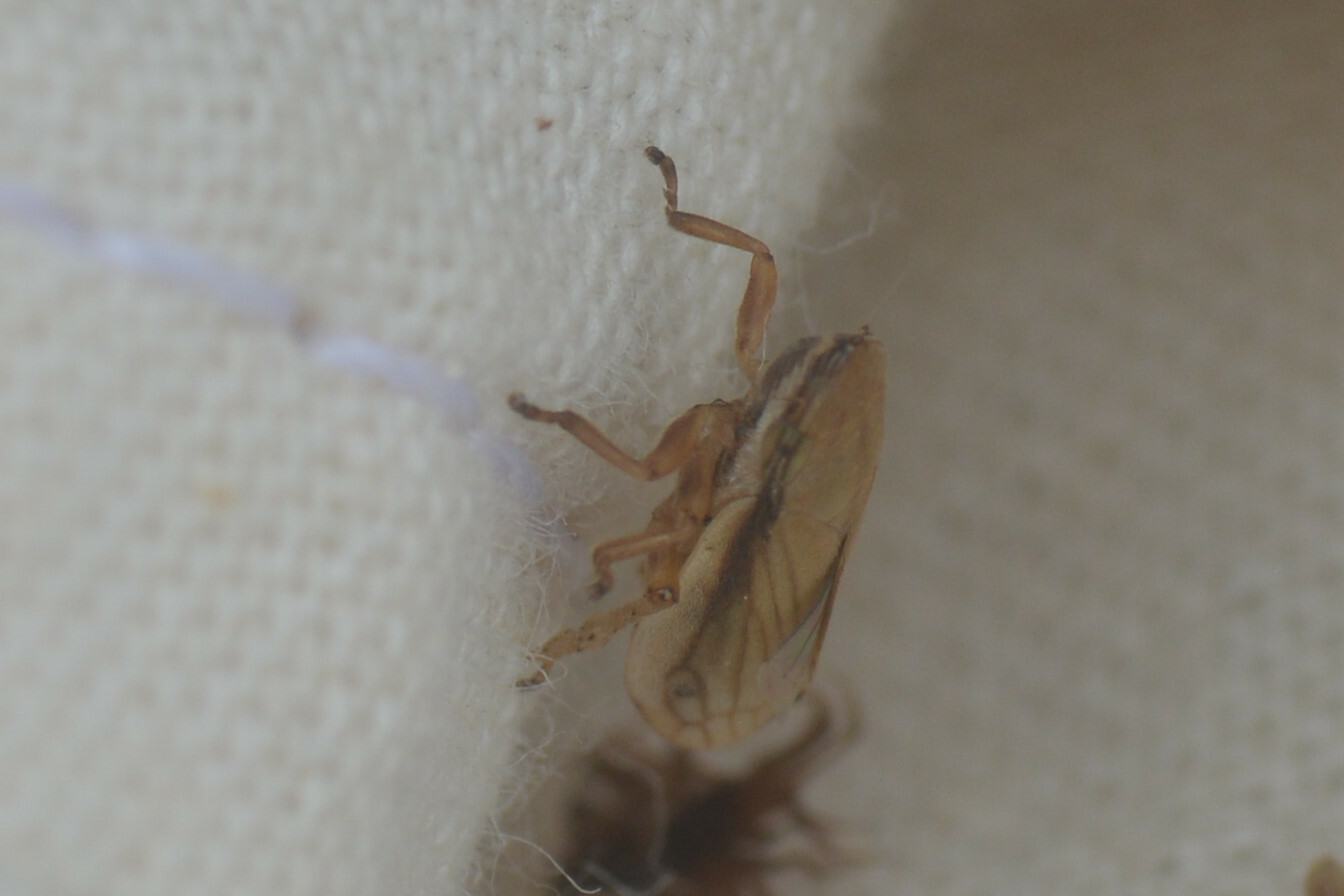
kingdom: Animalia
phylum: Arthropoda
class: Insecta
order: Hemiptera
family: Aphrophoridae
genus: Neophilaenus
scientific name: Neophilaenus lineatus
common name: Spittlebug
